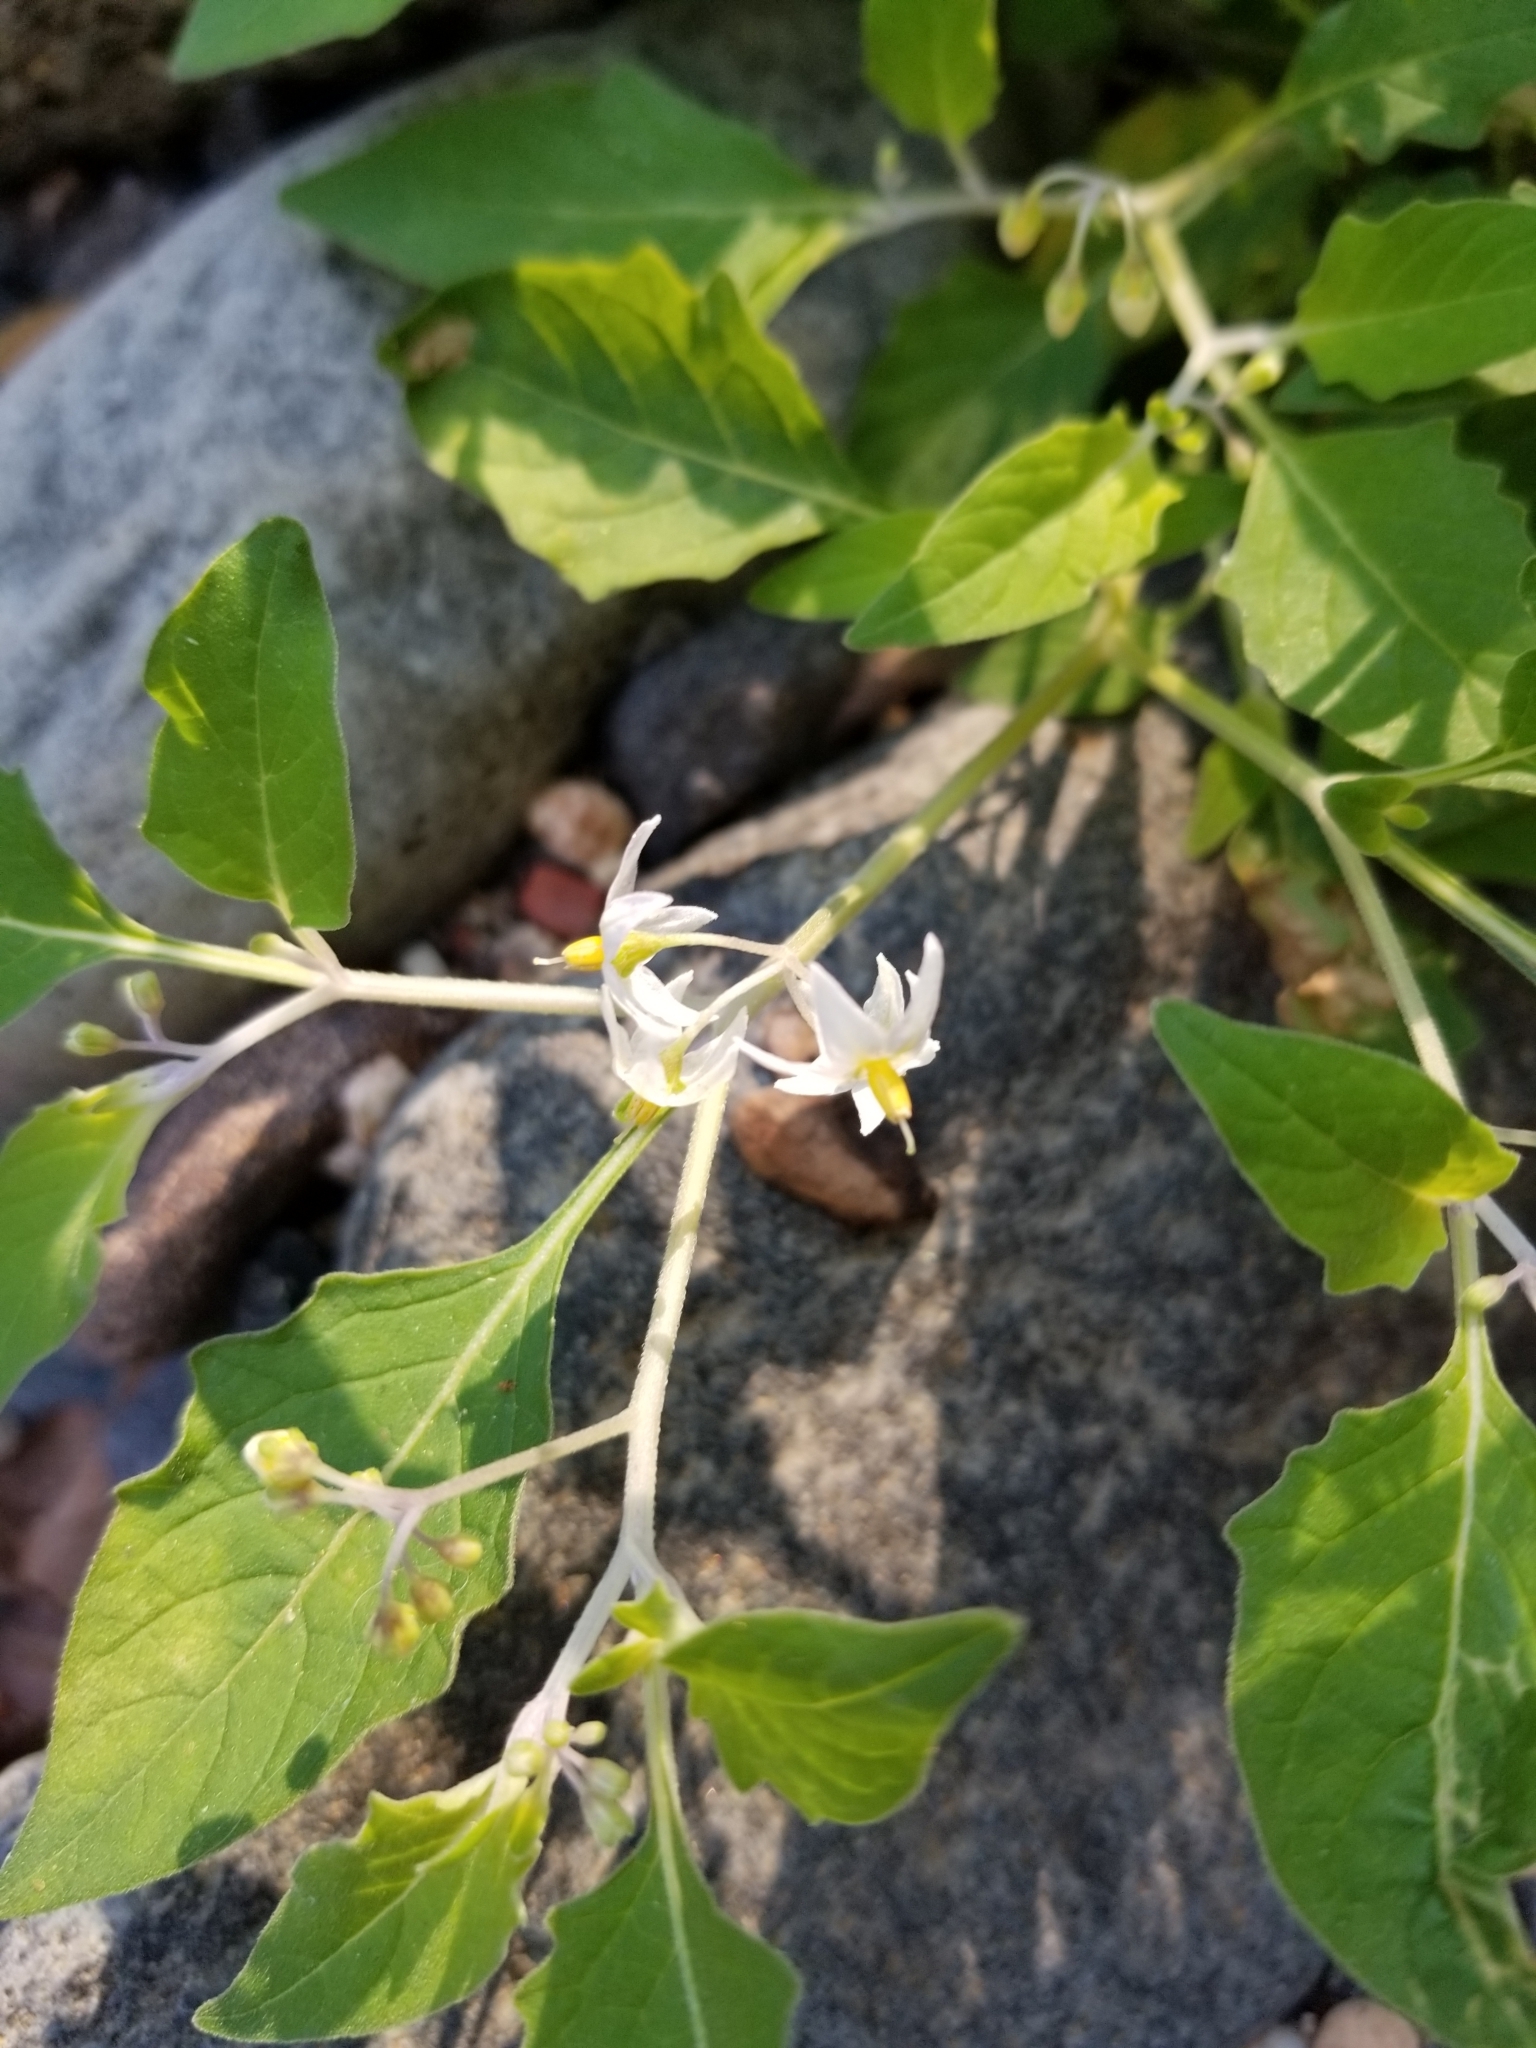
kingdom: Plantae
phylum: Tracheophyta
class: Magnoliopsida
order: Solanales
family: Solanaceae
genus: Solanum
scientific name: Solanum douglasii
